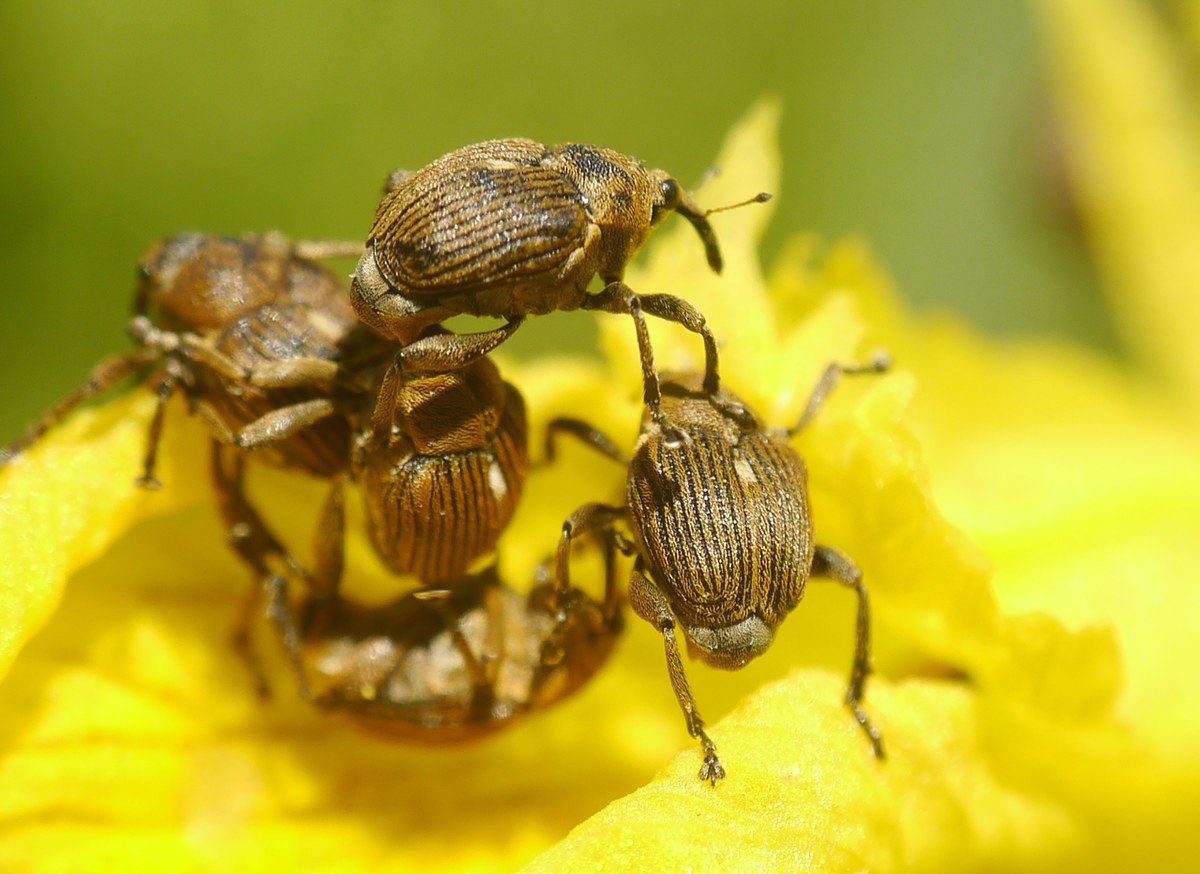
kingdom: Animalia
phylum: Arthropoda
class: Insecta
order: Coleoptera
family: Curculionidae
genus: Mononychus
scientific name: Mononychus punctumalbum
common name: Iris weevil
